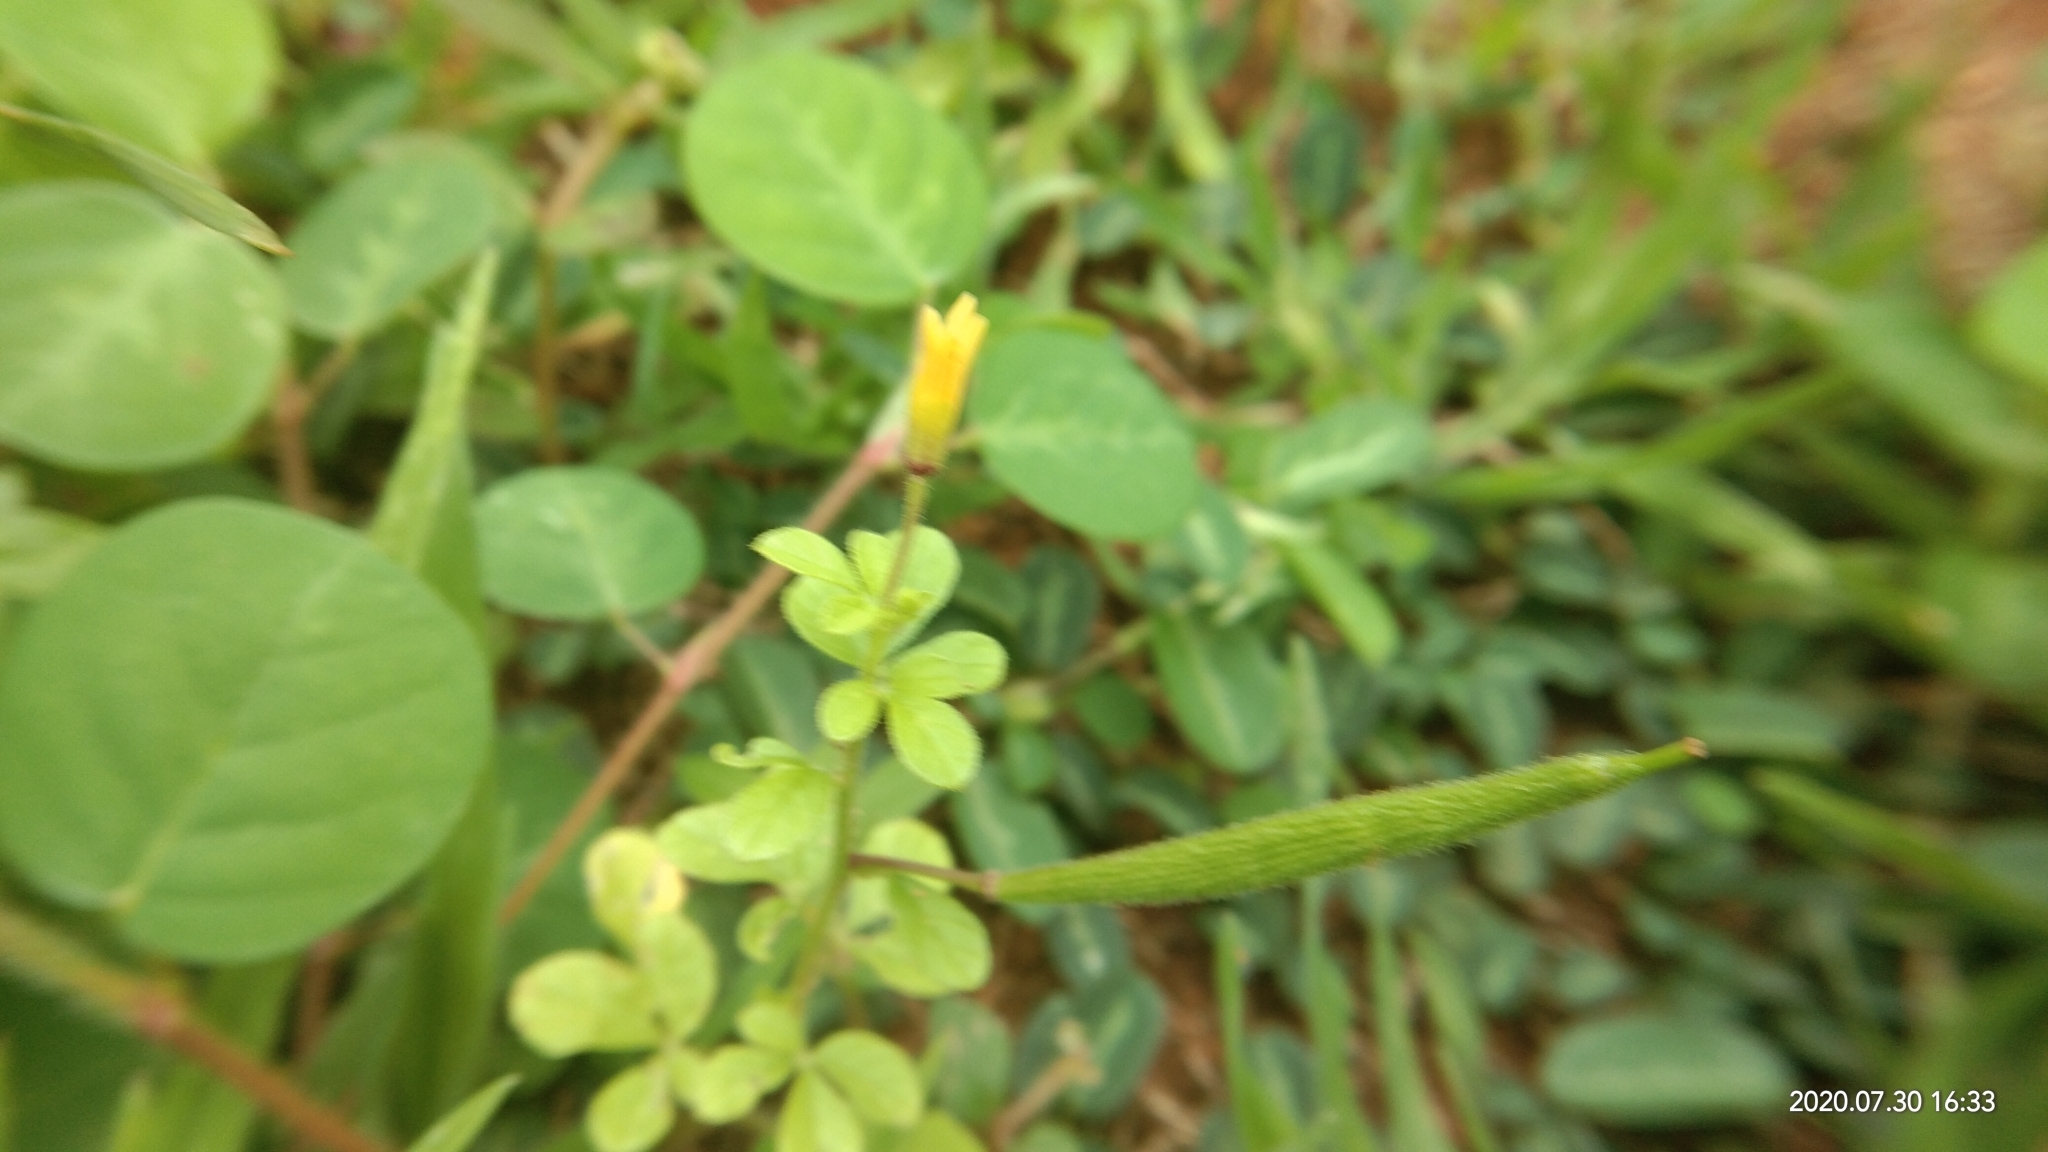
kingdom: Plantae
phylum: Tracheophyta
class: Magnoliopsida
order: Brassicales
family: Cleomaceae
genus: Arivela
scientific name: Arivela viscosa
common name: Asian spiderflower
